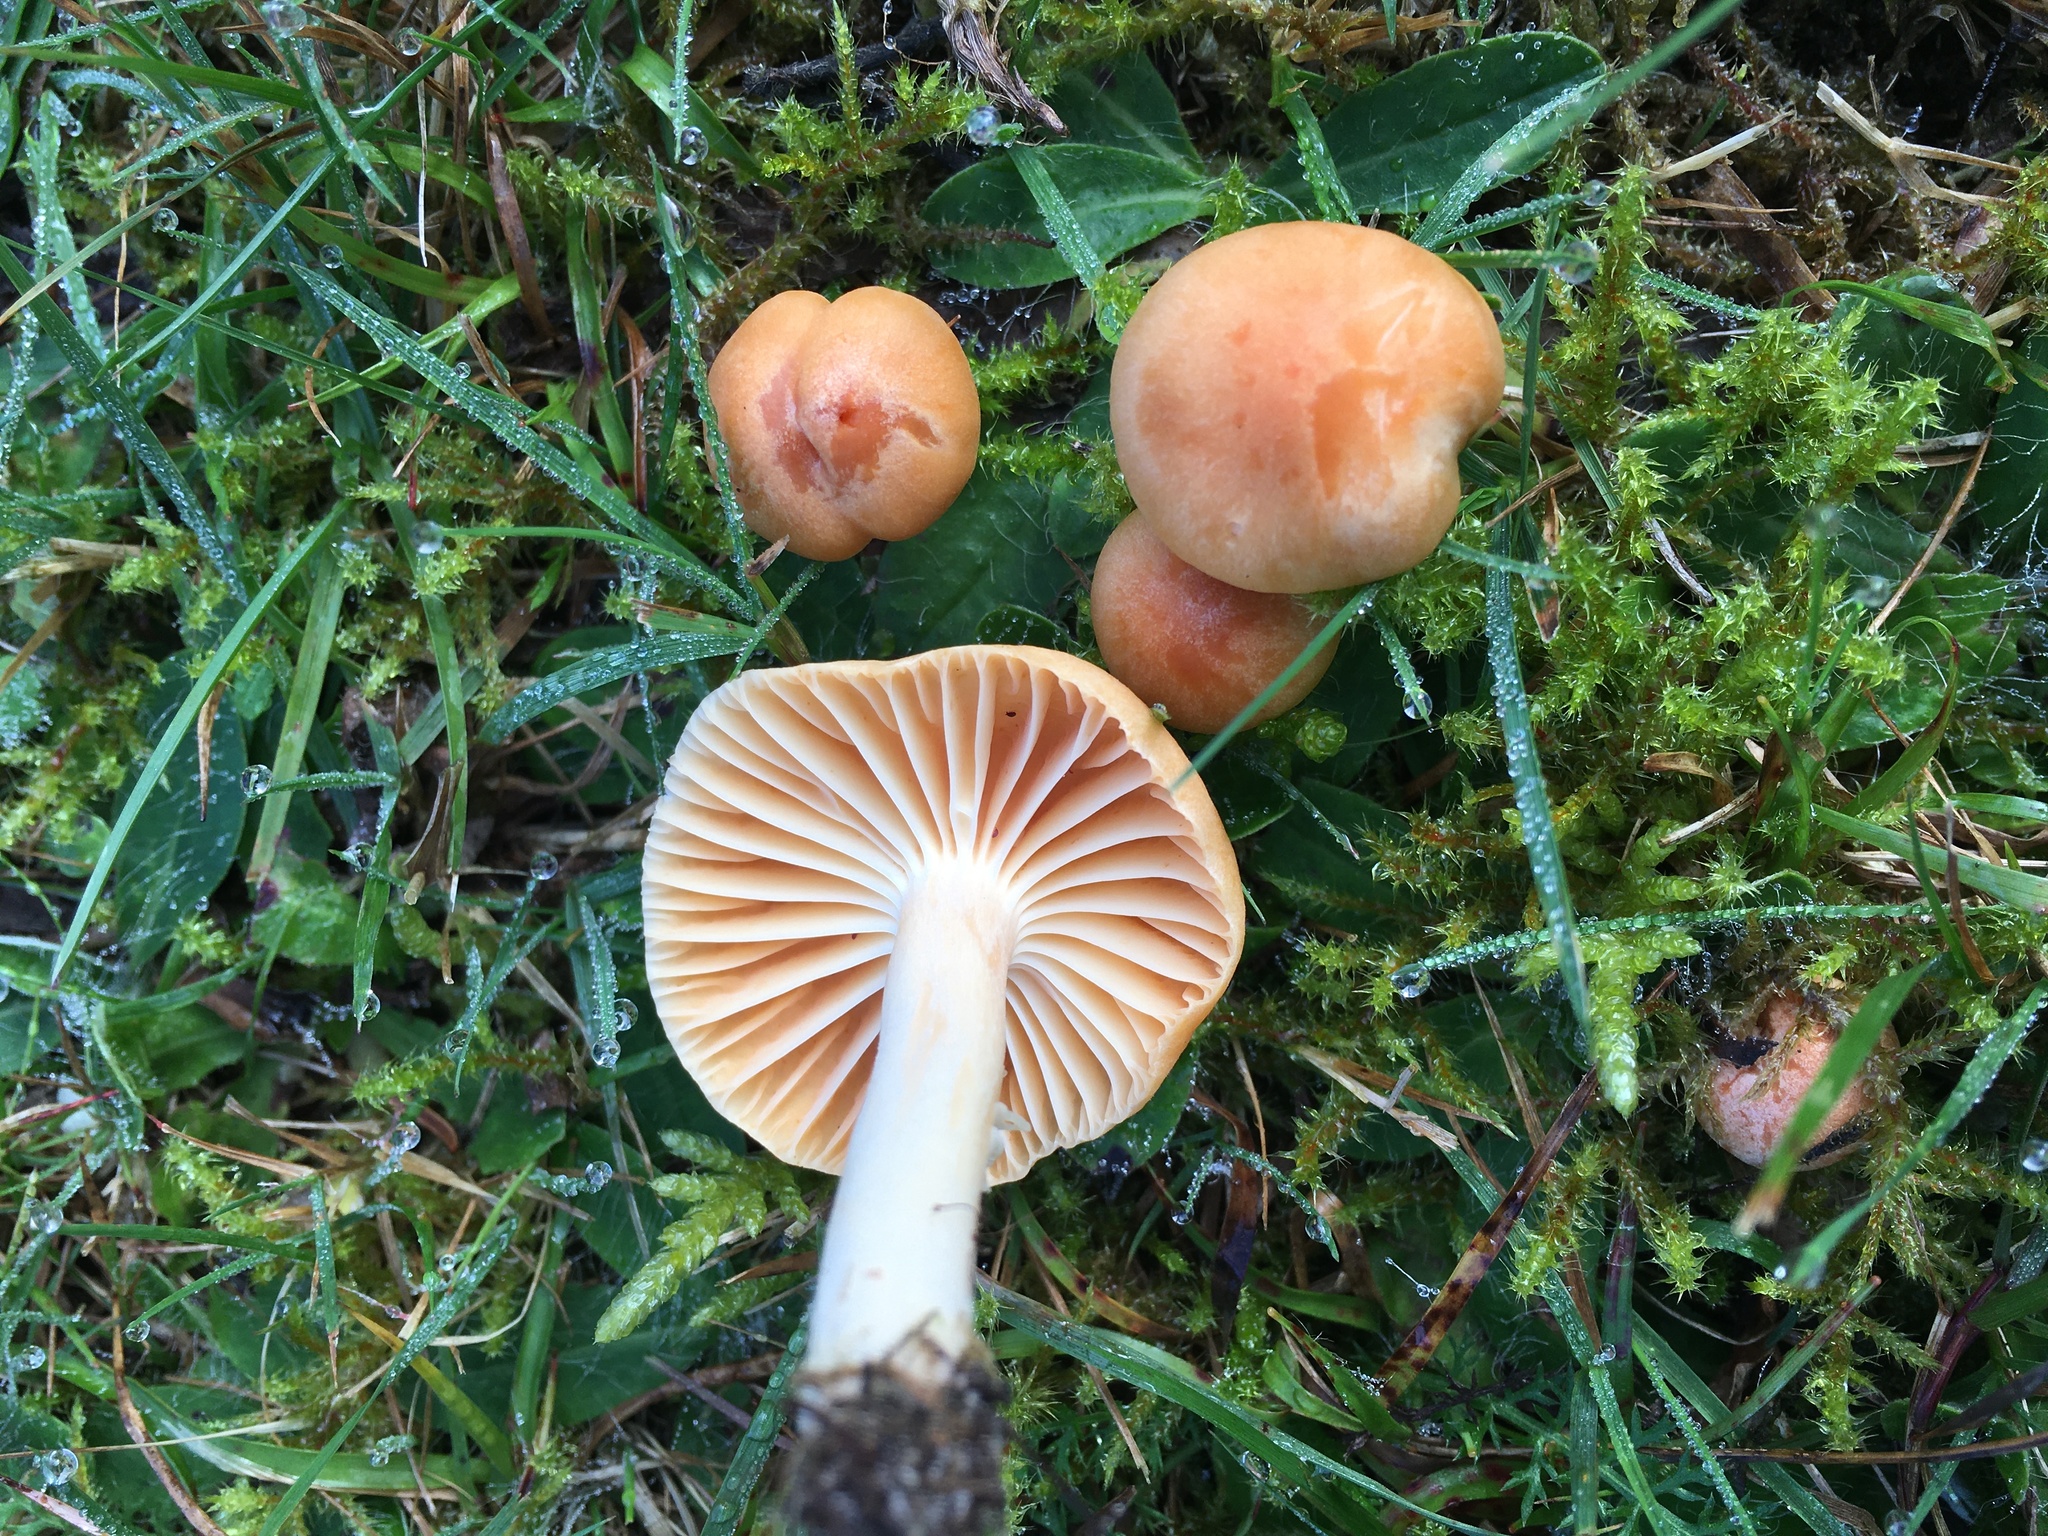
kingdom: Fungi
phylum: Basidiomycota
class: Agaricomycetes
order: Agaricales
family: Hygrophoraceae
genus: Cuphophyllus
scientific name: Cuphophyllus pratensis
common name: Meadow waxcap
